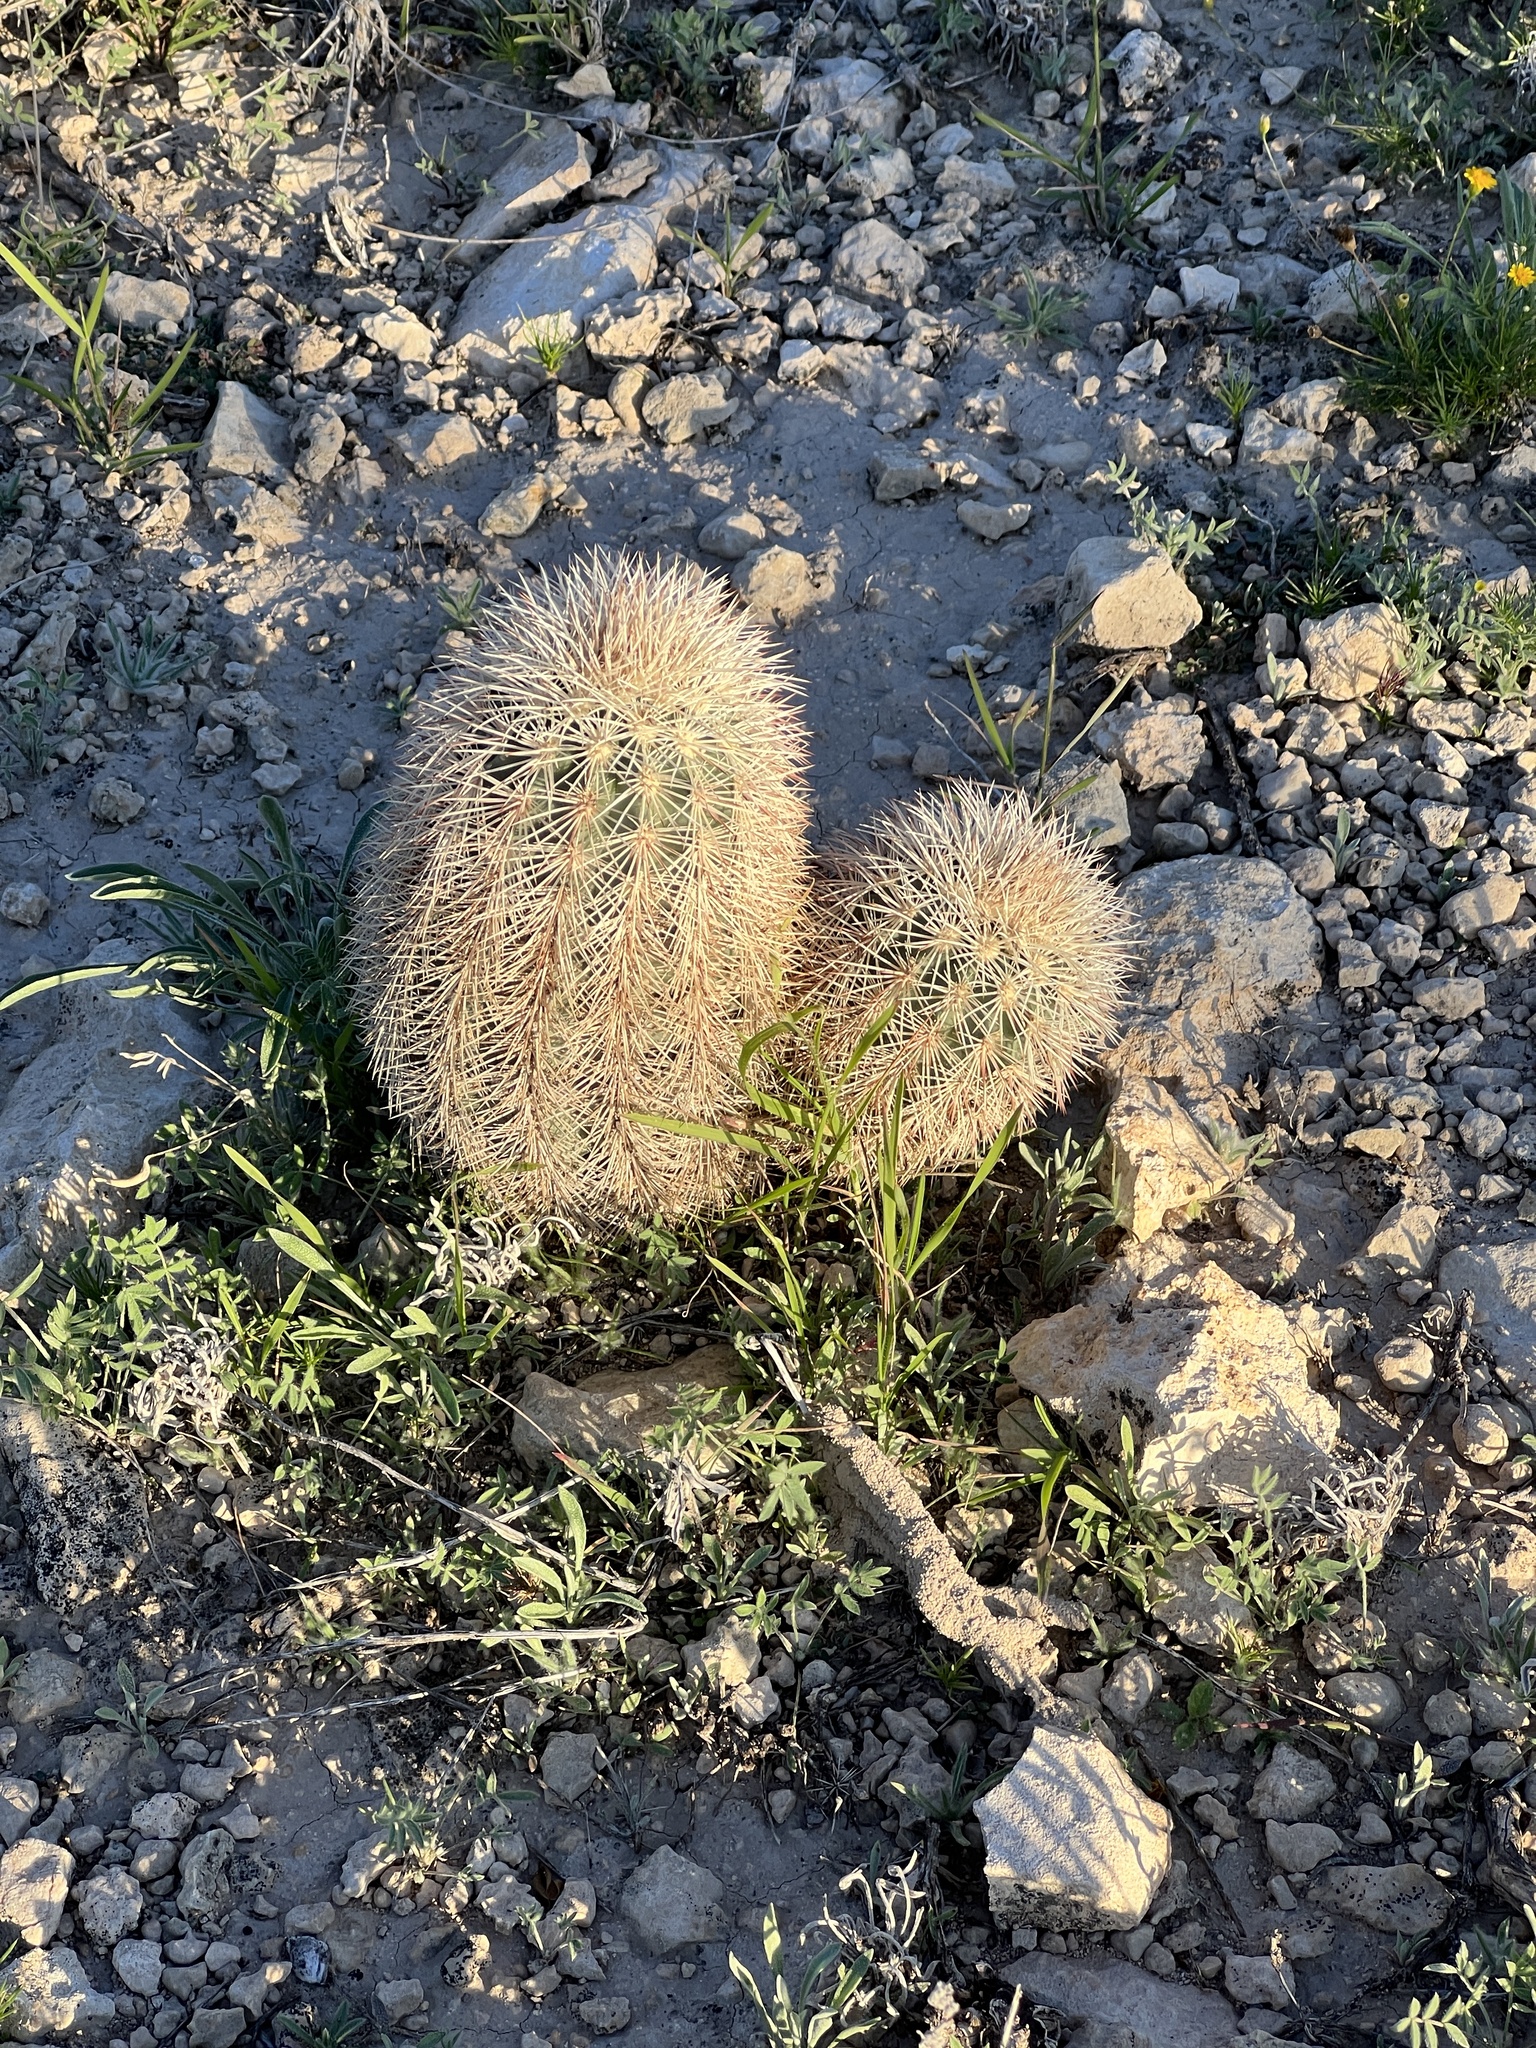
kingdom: Plantae
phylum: Tracheophyta
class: Magnoliopsida
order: Caryophyllales
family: Cactaceae
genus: Echinocereus
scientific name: Echinocereus dasyacanthus
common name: Spiny hedgehog cactus
